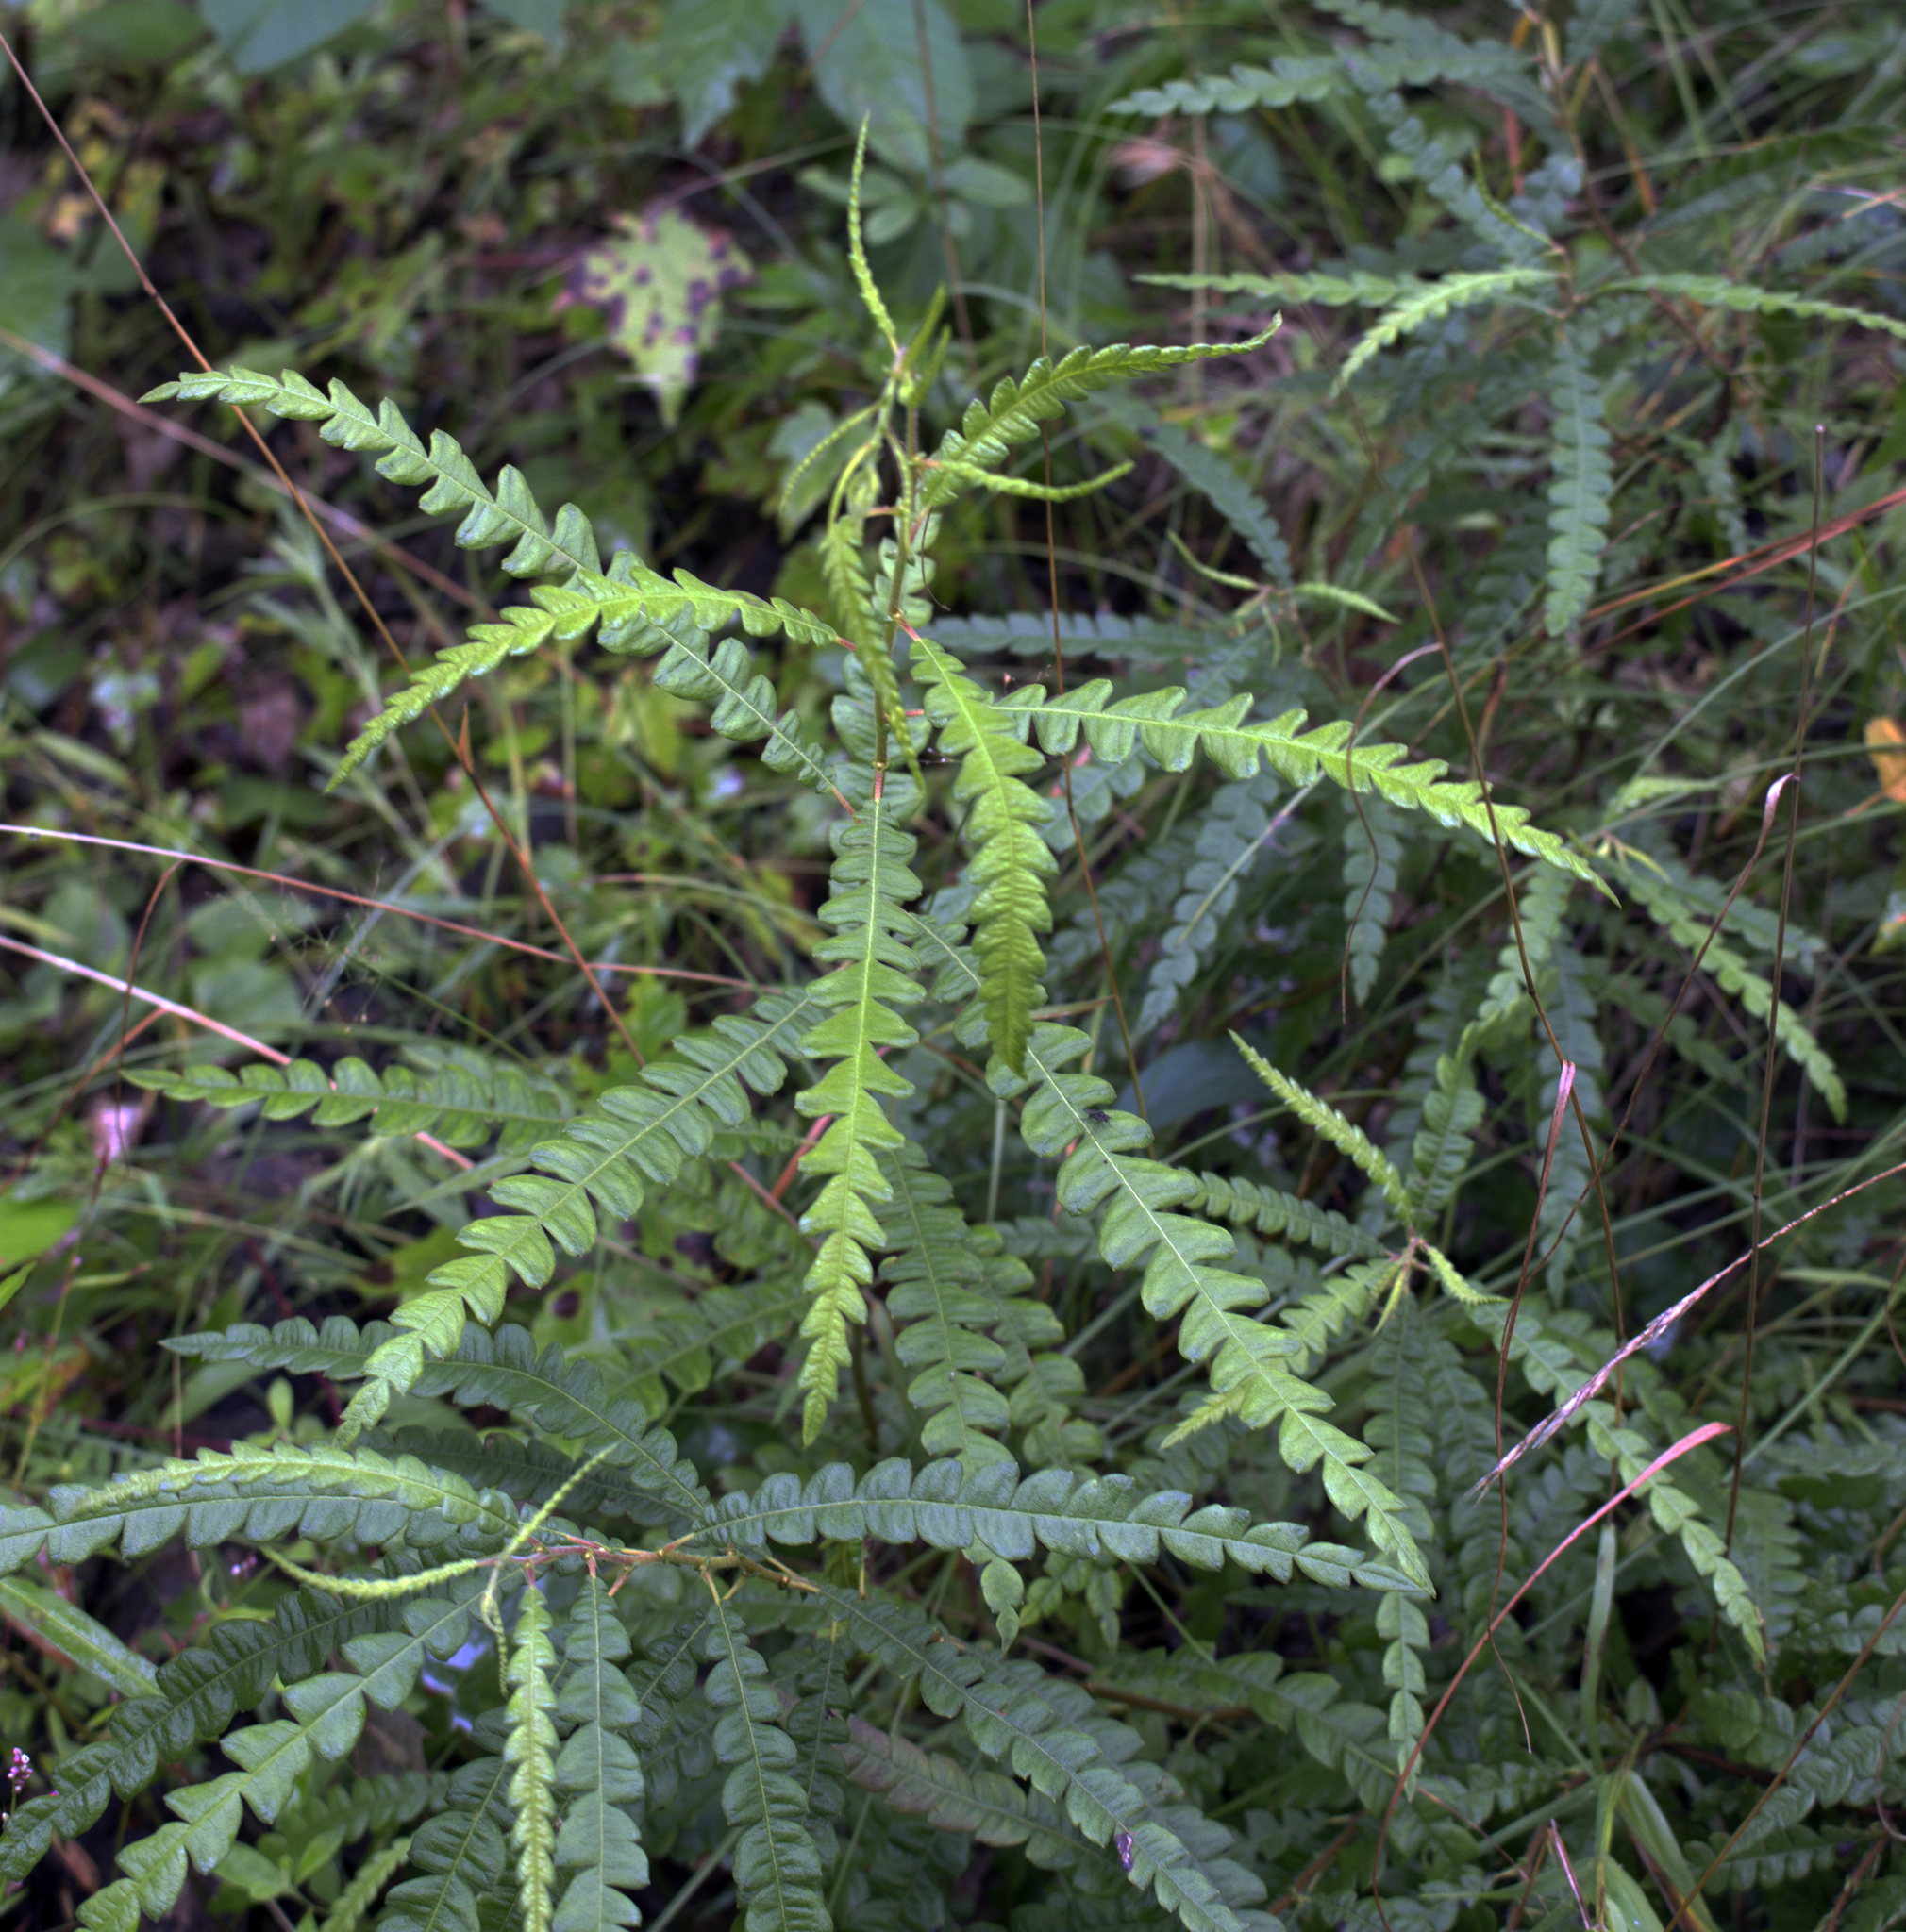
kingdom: Plantae
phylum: Tracheophyta
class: Magnoliopsida
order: Fagales
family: Myricaceae
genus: Comptonia
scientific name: Comptonia peregrina
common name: Sweet-fern
